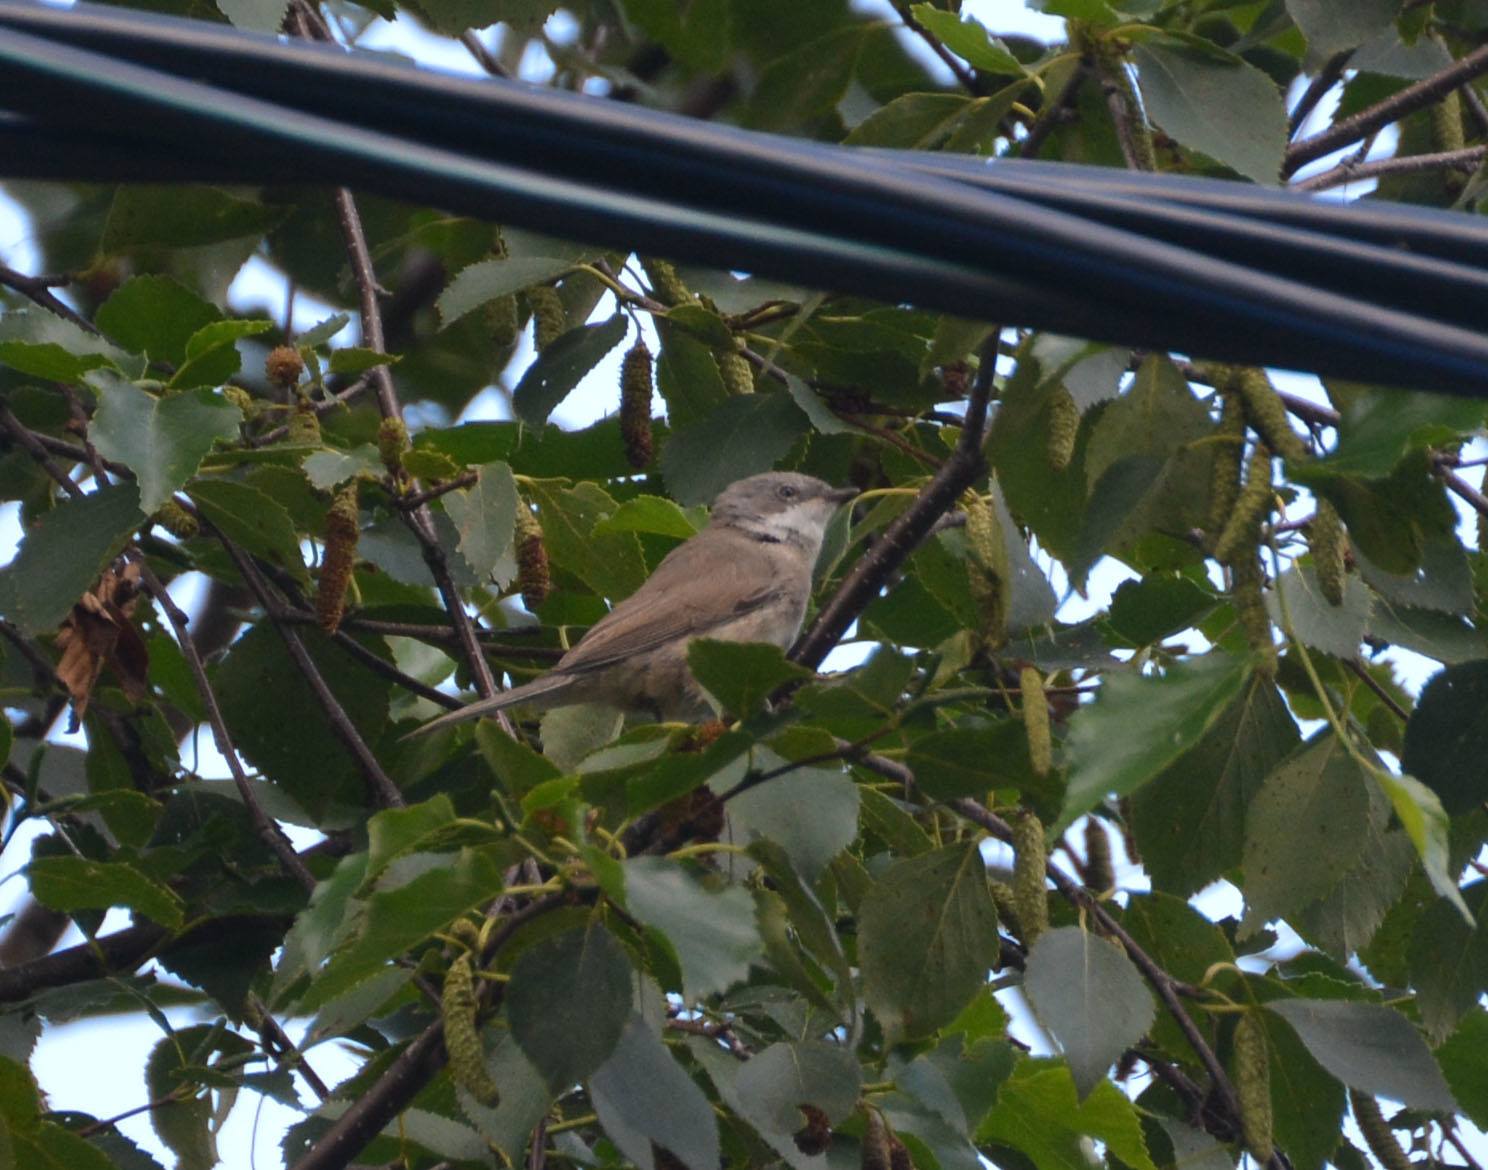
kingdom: Animalia
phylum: Chordata
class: Aves
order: Passeriformes
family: Sylviidae
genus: Sylvia
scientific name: Sylvia curruca
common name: Lesser whitethroat
